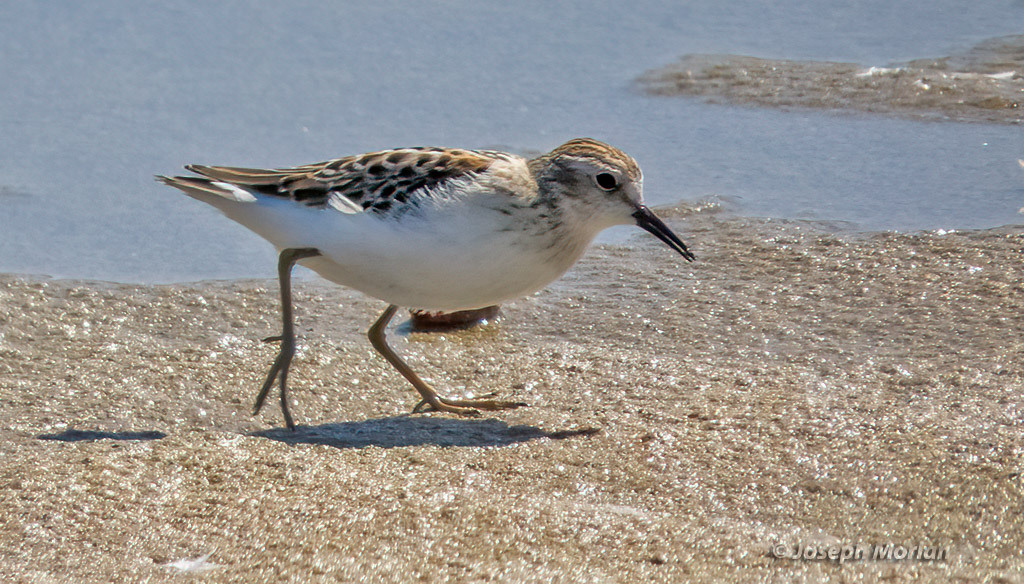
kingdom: Animalia
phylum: Chordata
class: Aves
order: Charadriiformes
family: Scolopacidae
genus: Calidris
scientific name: Calidris minutilla
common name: Least sandpiper
